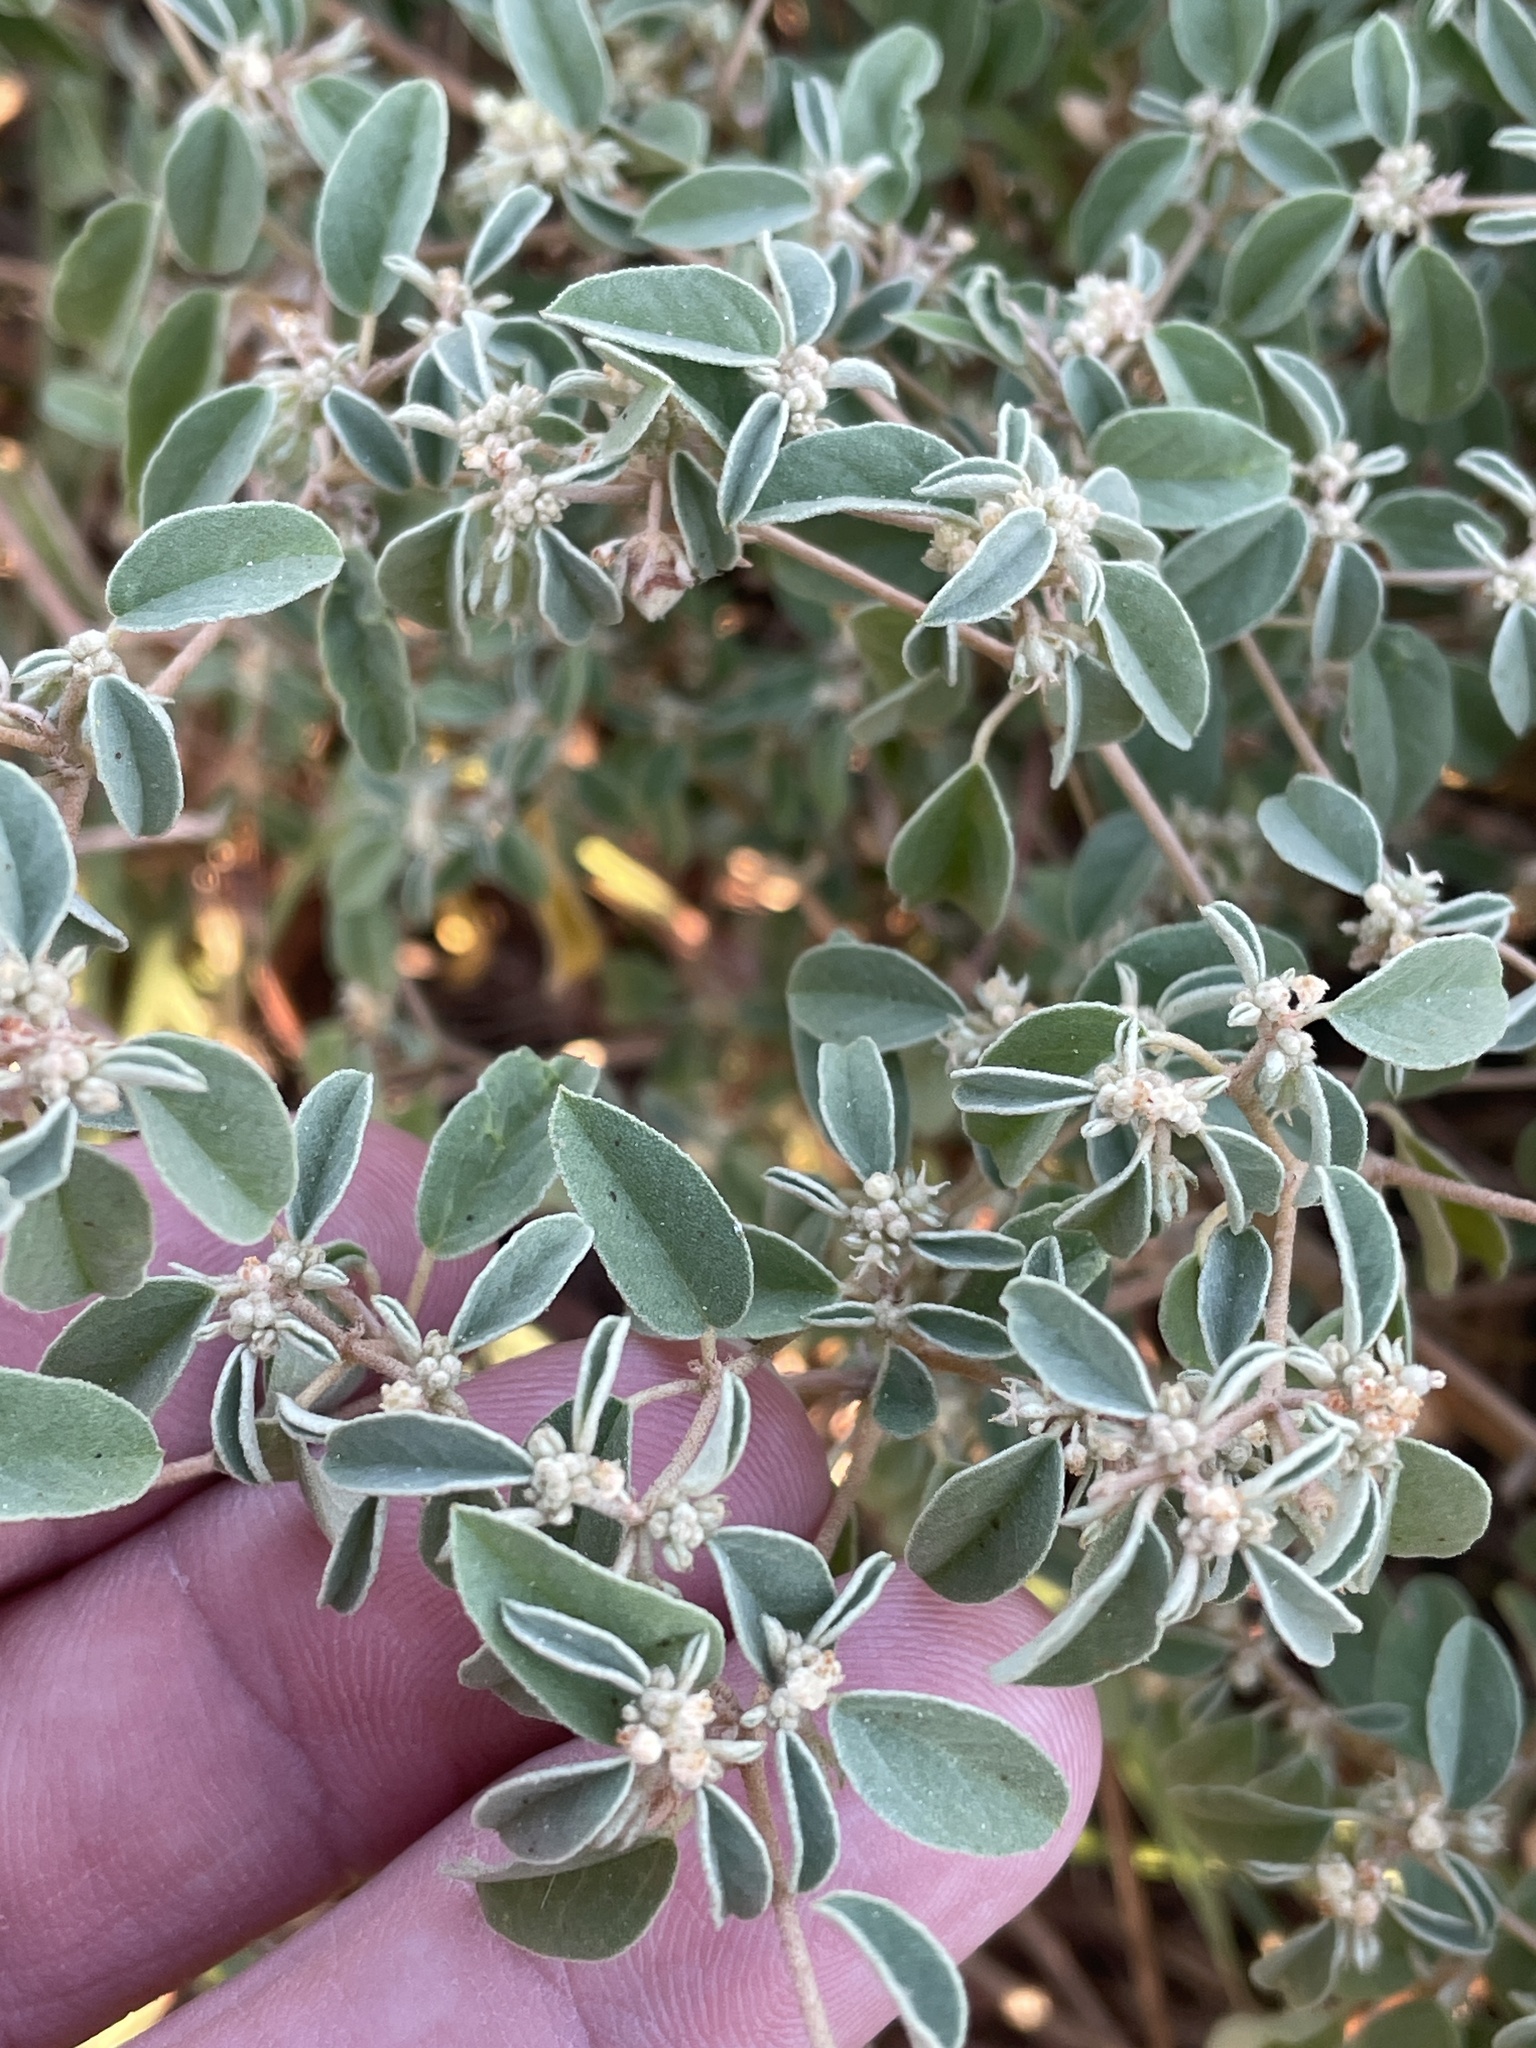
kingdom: Plantae
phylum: Tracheophyta
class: Magnoliopsida
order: Malpighiales
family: Euphorbiaceae
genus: Croton
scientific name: Croton monanthogynus
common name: One-seed croton
